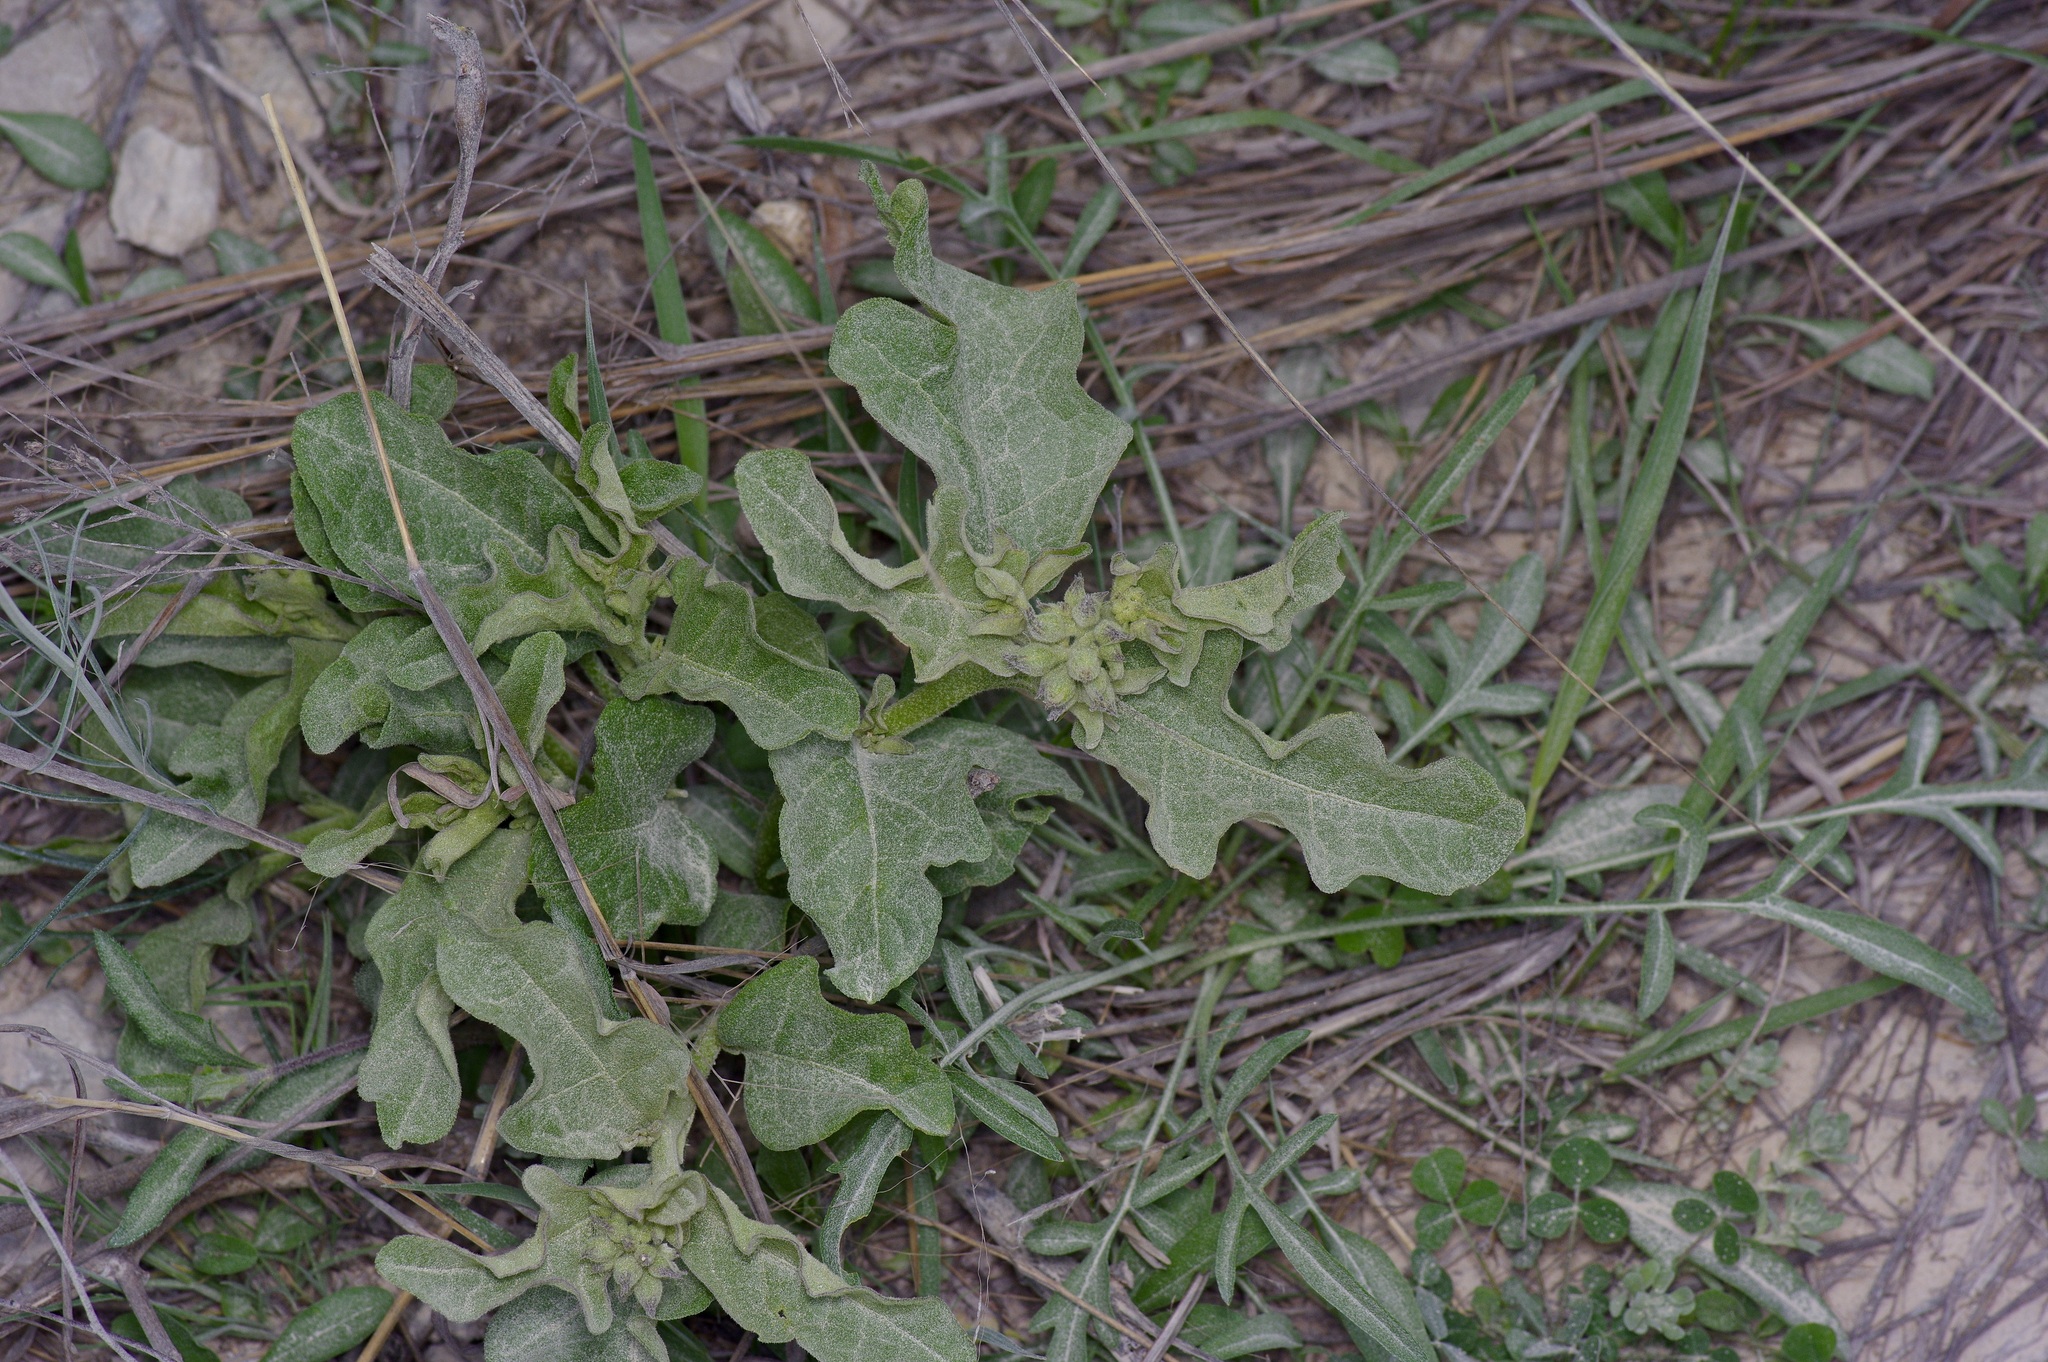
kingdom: Plantae
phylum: Tracheophyta
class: Magnoliopsida
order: Gentianales
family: Apocynaceae
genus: Asclepias
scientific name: Asclepias oenotheroides
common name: Zizotes milkweed
